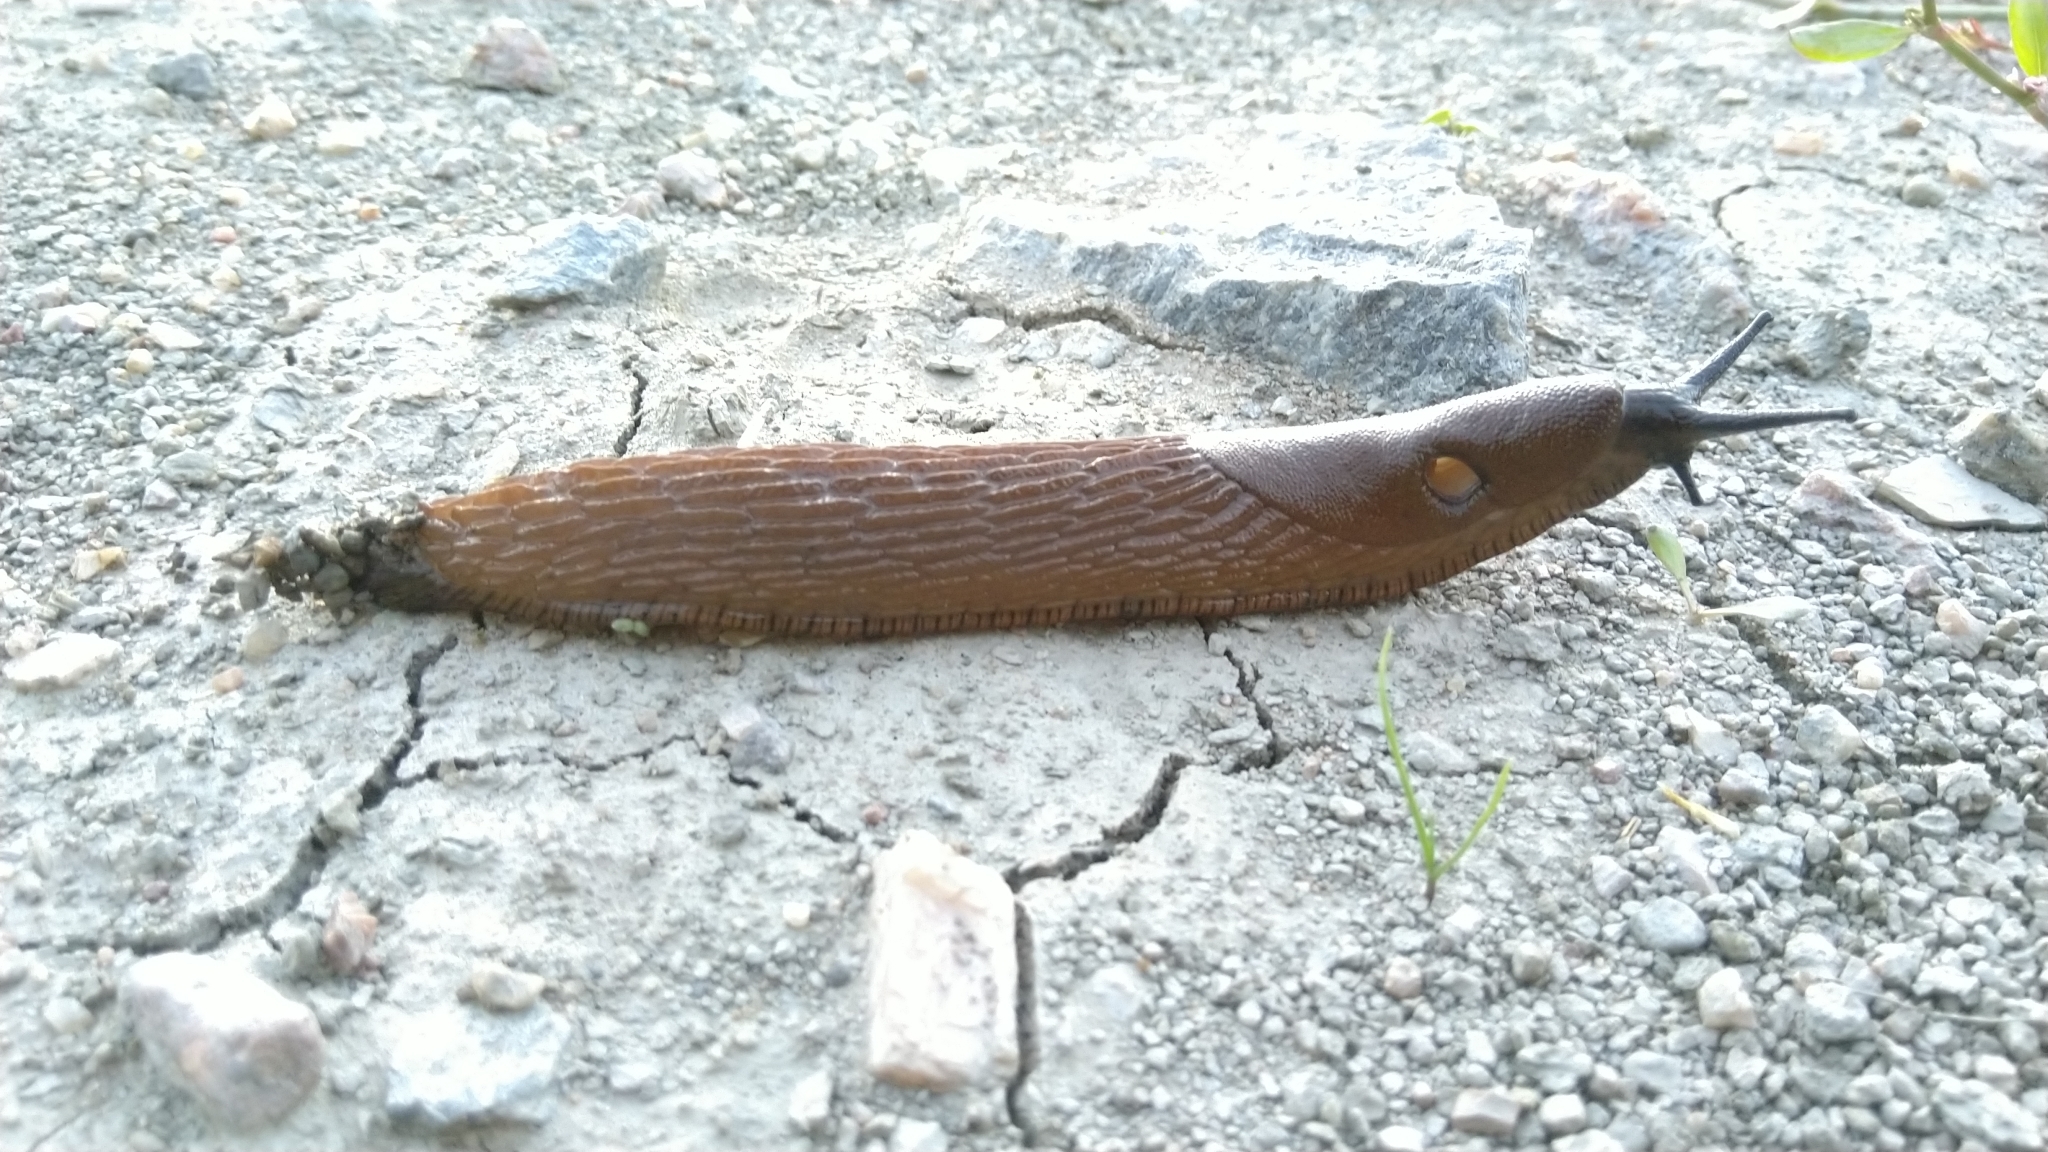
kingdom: Animalia
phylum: Mollusca
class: Gastropoda
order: Stylommatophora
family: Arionidae
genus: Arion
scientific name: Arion vulgaris
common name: Lusitanian slug
